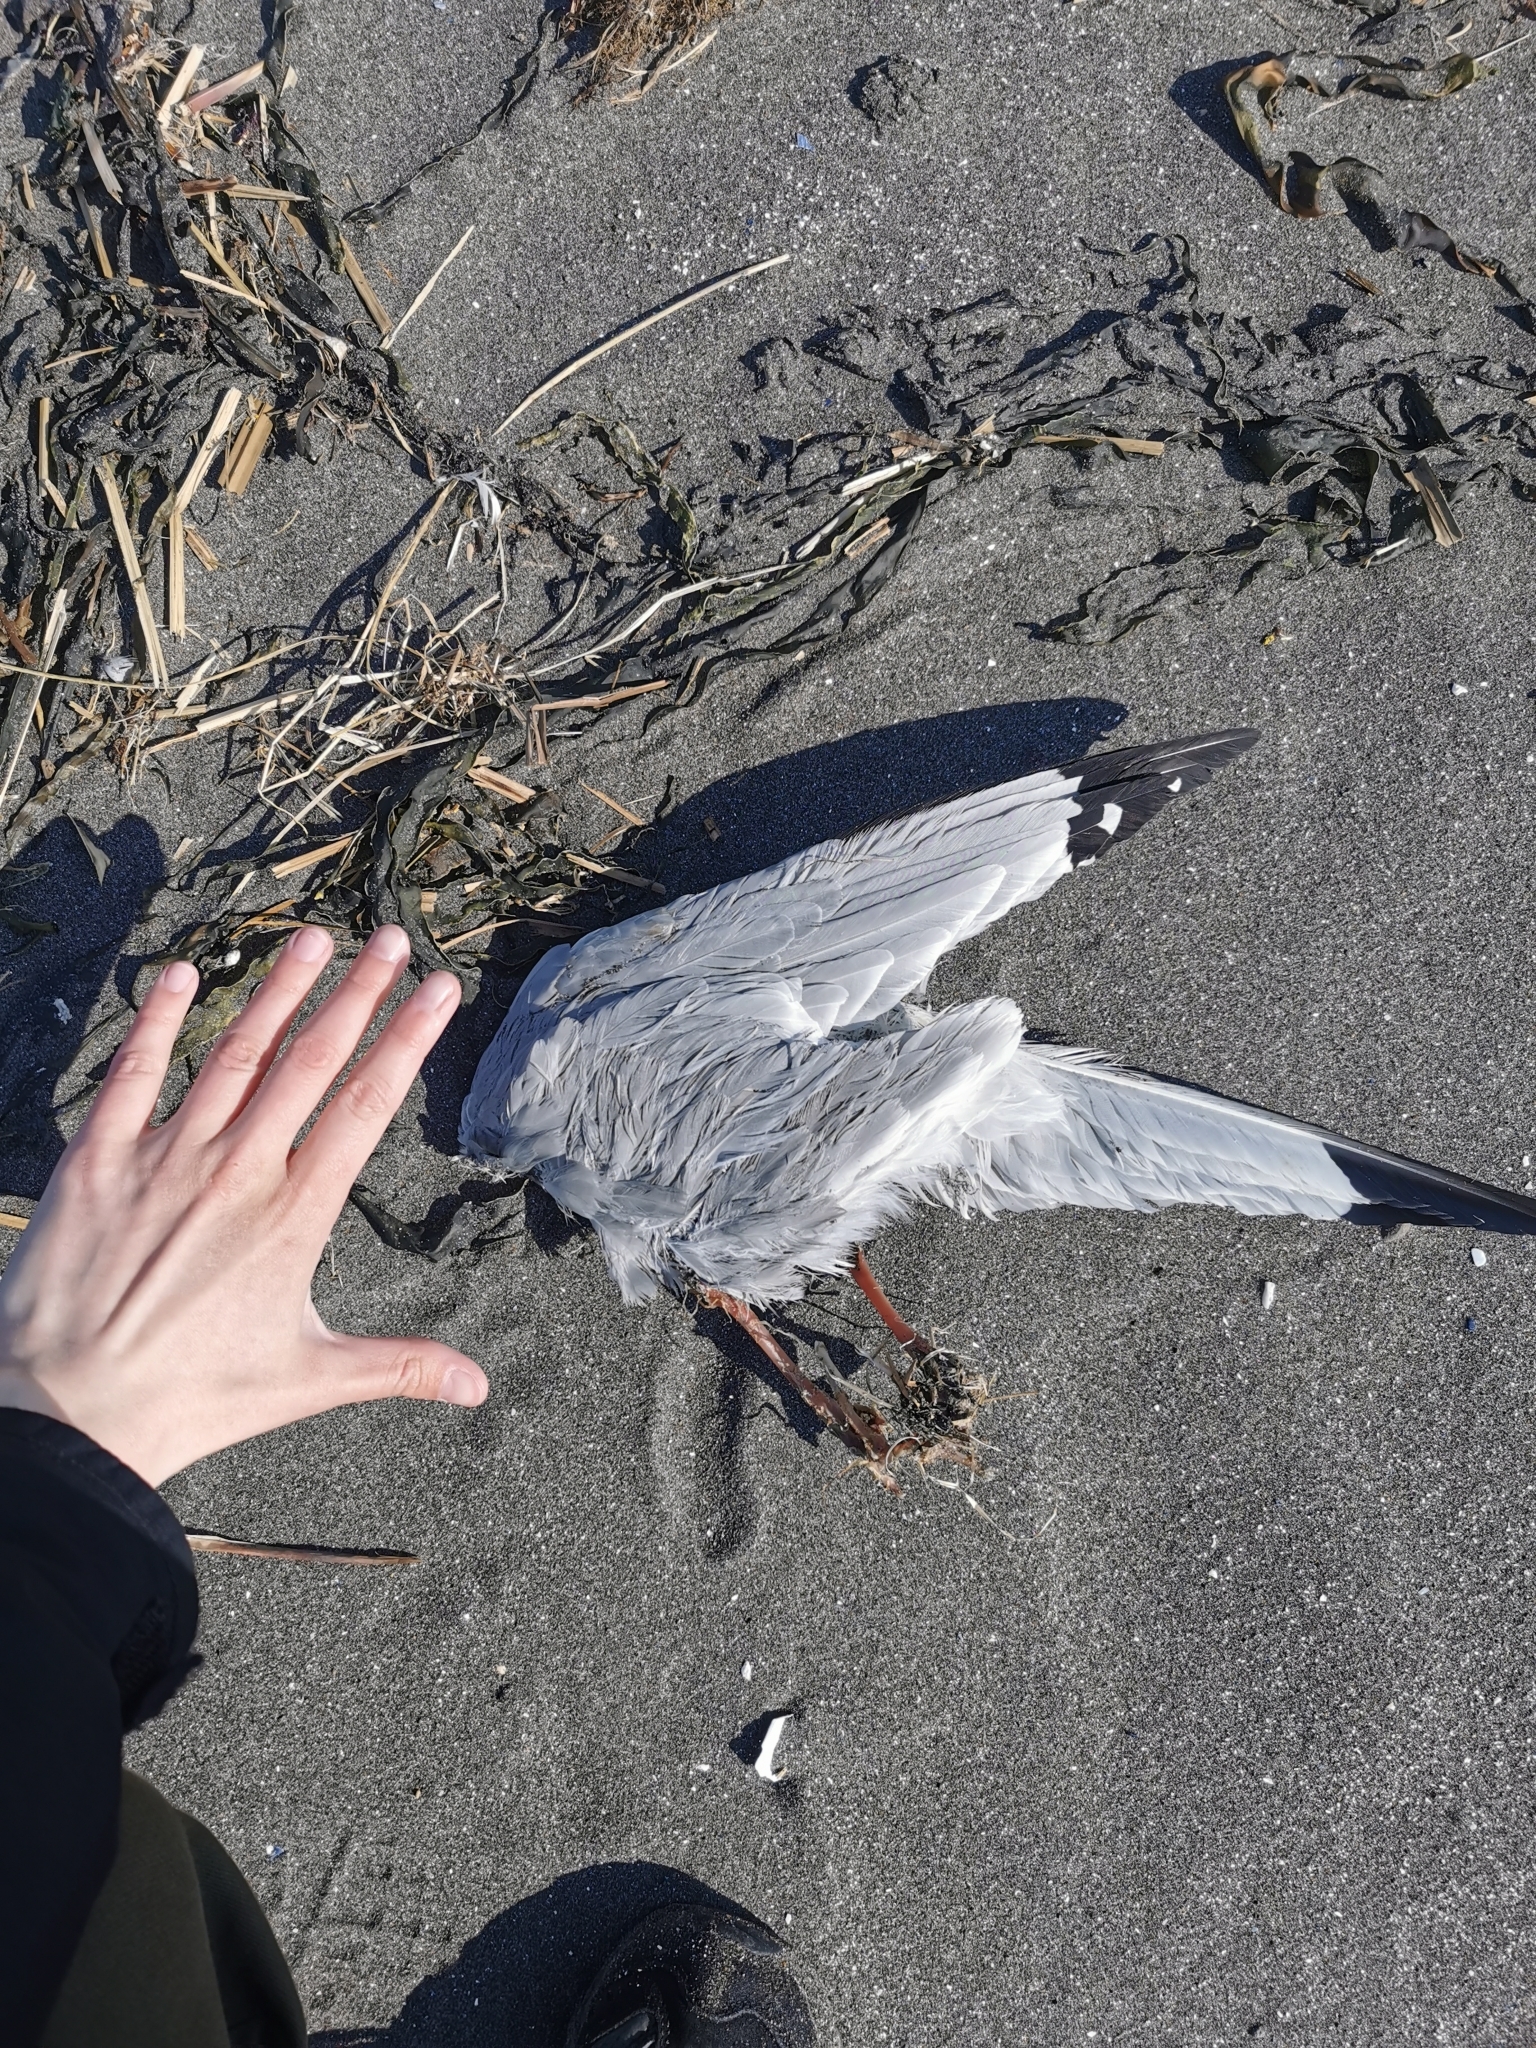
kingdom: Animalia
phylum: Chordata
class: Aves
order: Charadriiformes
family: Laridae
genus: Rissa
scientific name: Rissa brevirostris
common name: Red-legged kittiwake
